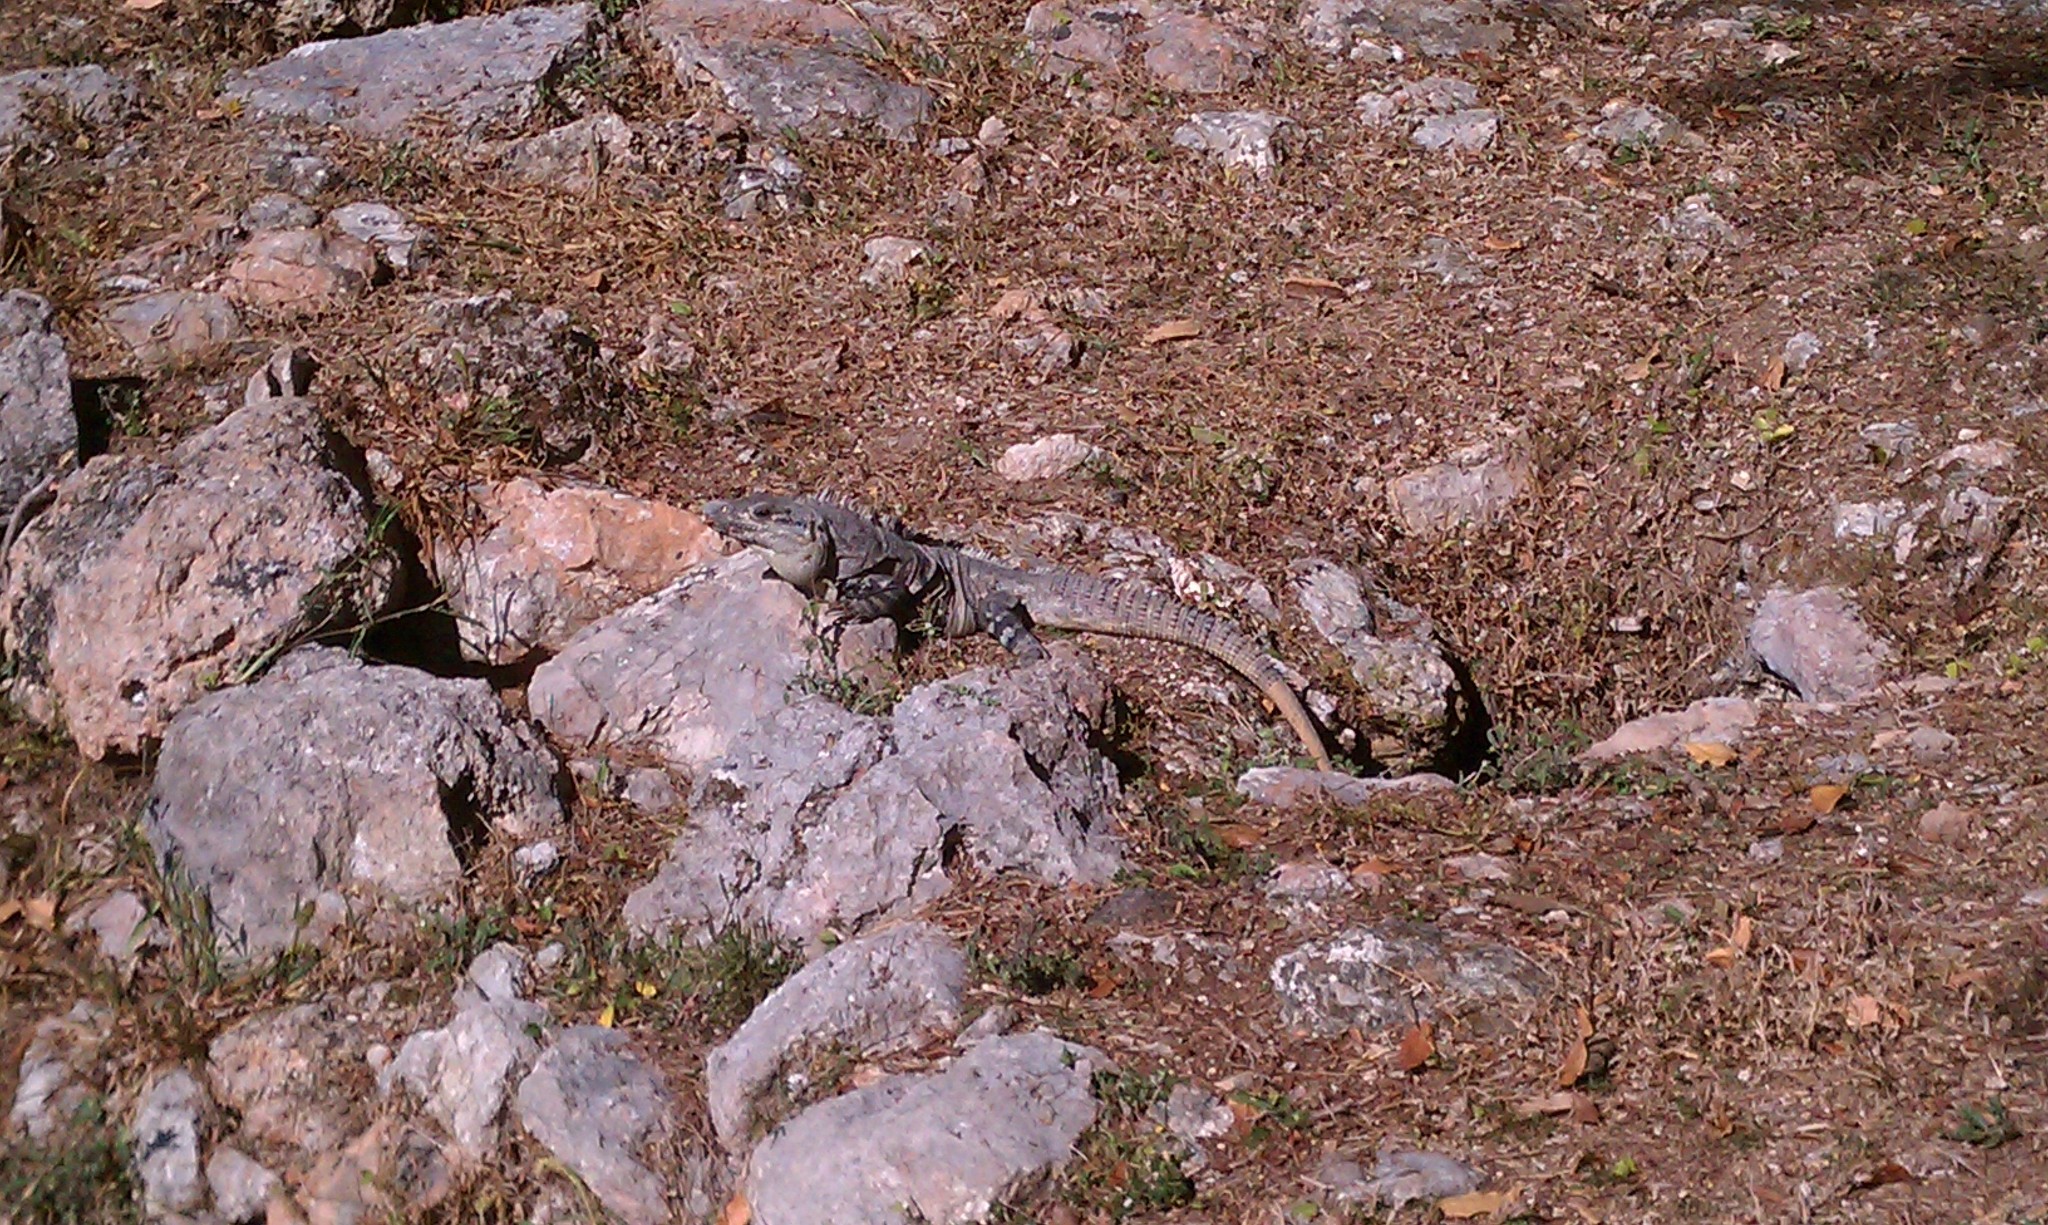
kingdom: Animalia
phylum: Chordata
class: Squamata
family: Iguanidae
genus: Ctenosaura
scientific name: Ctenosaura similis
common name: Black spiny-tailed iguana
